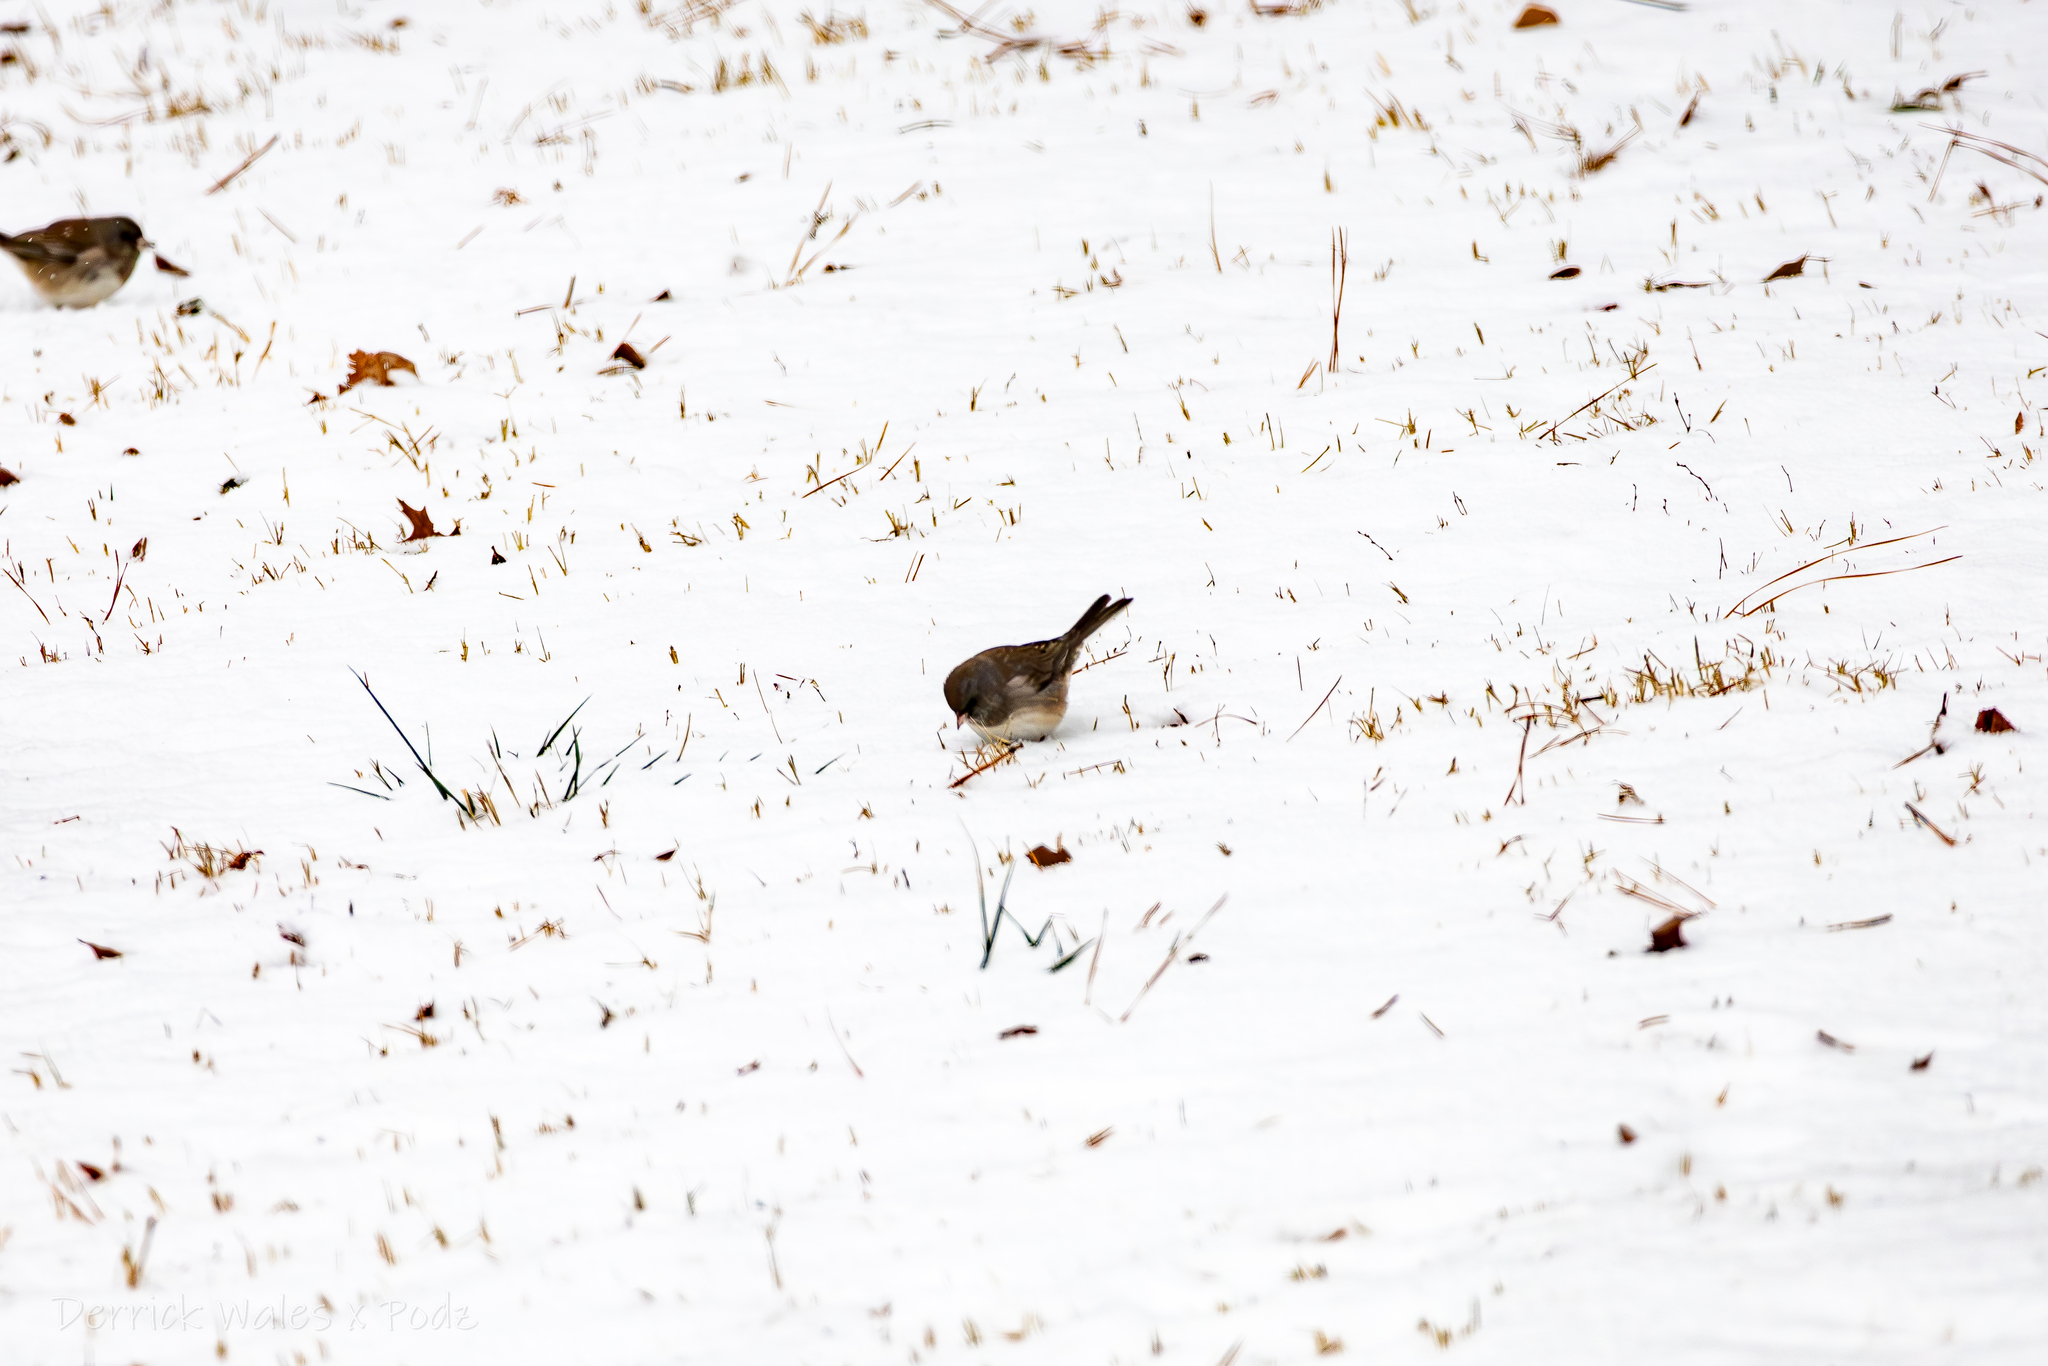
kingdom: Animalia
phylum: Chordata
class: Aves
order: Passeriformes
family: Passerellidae
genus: Junco
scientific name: Junco hyemalis
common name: Dark-eyed junco
